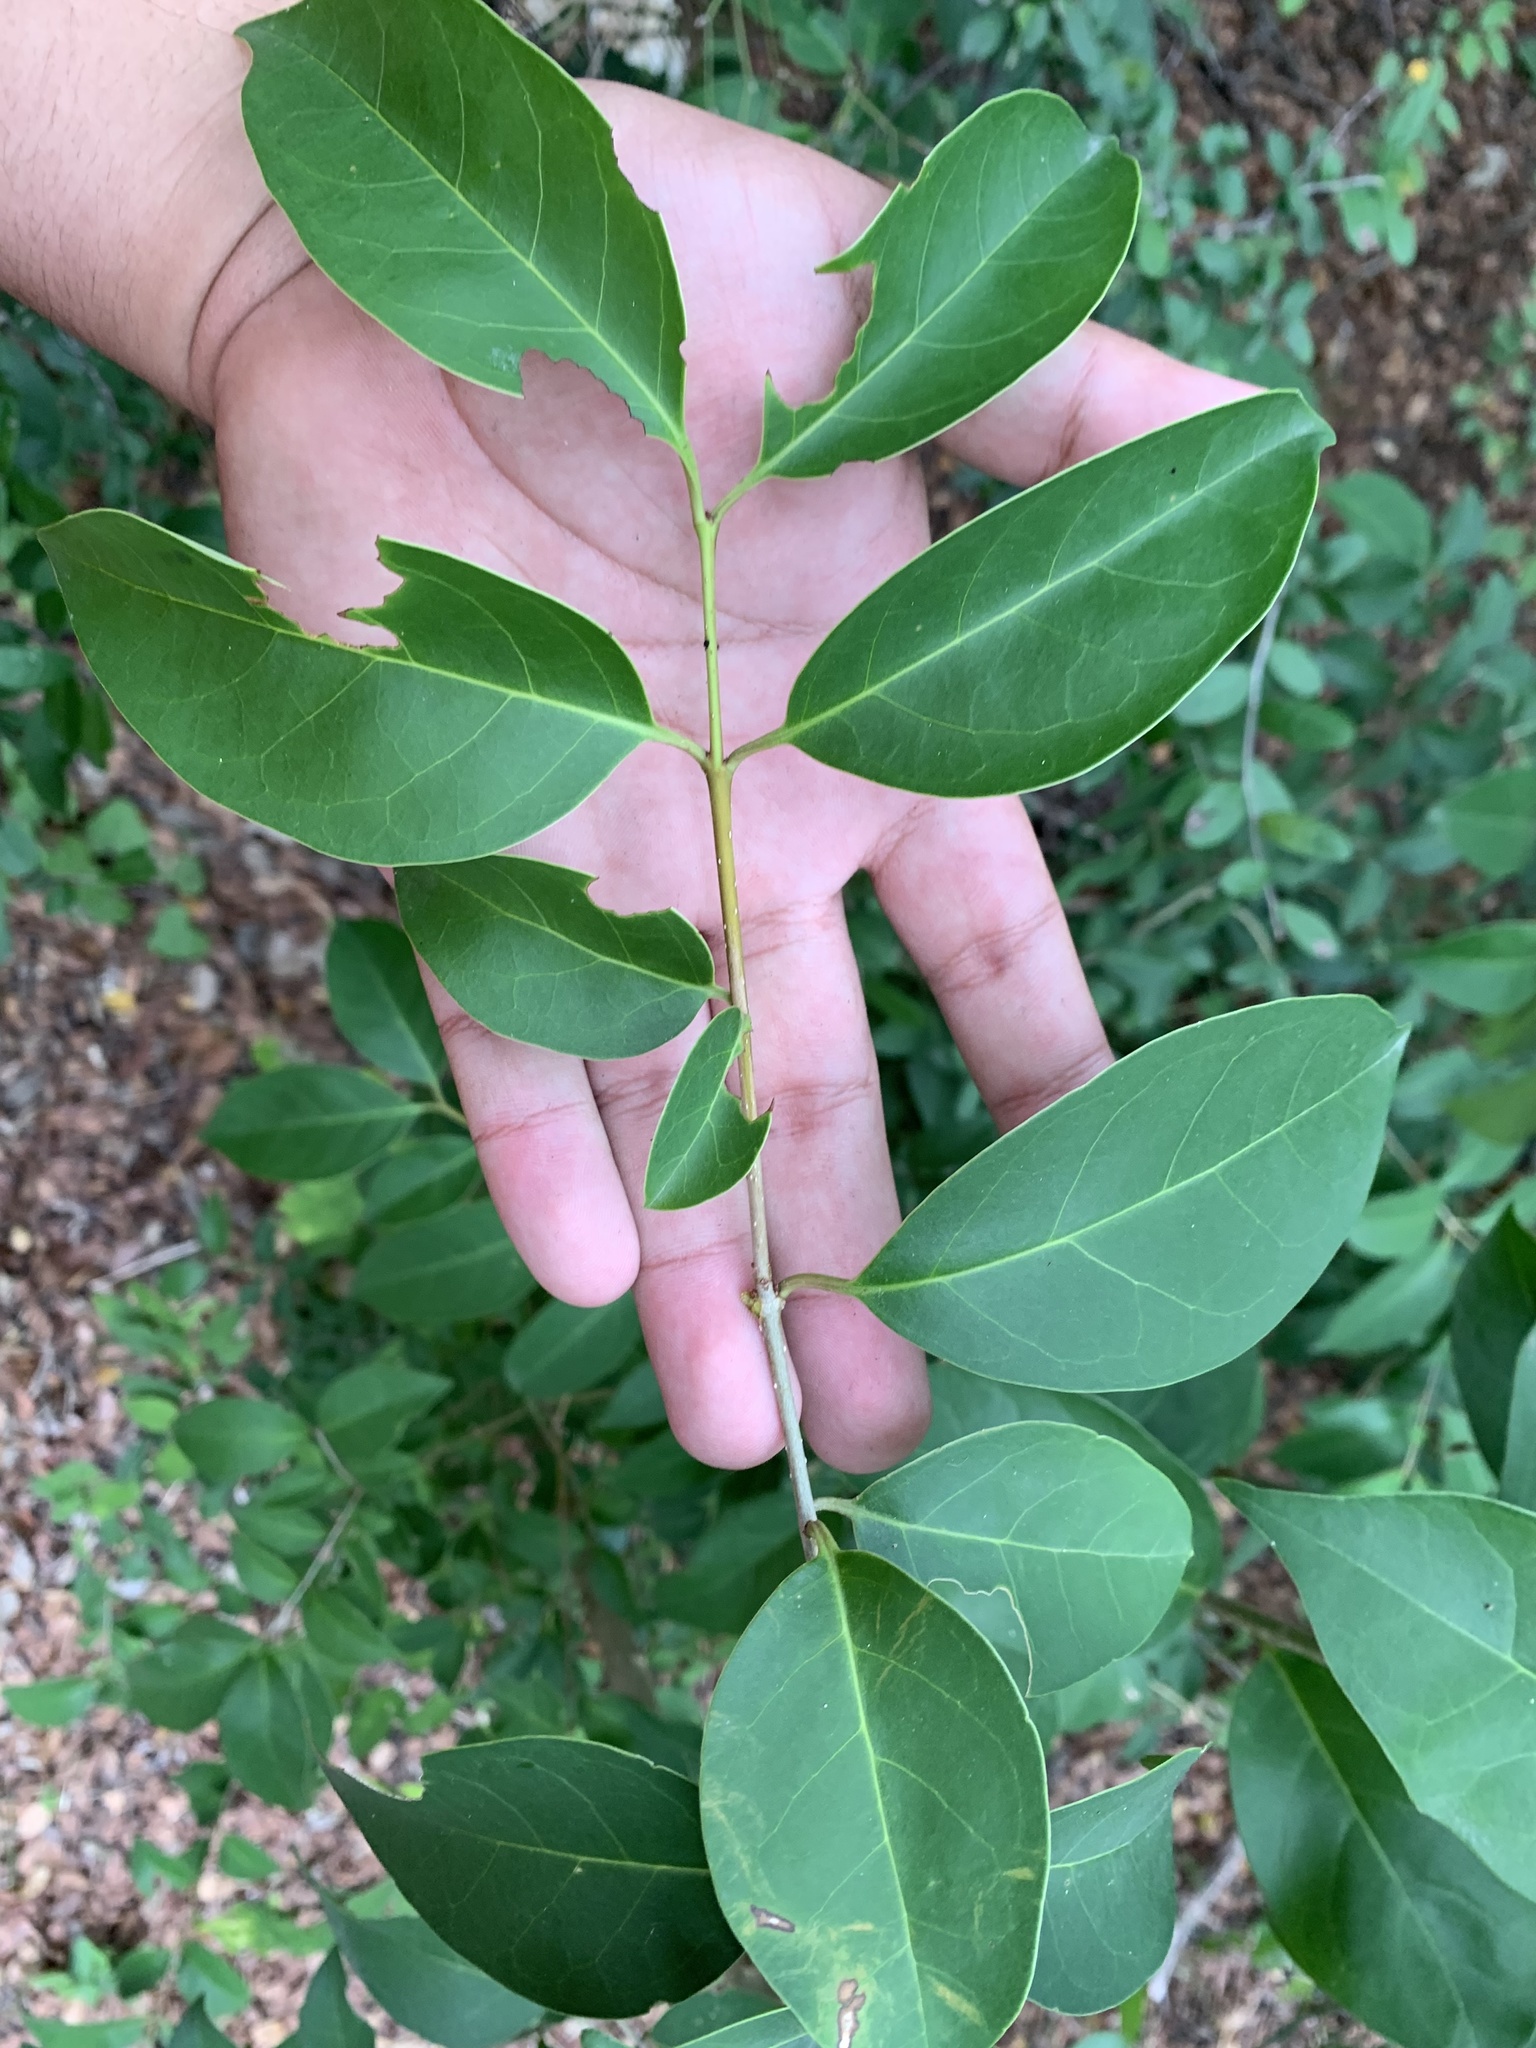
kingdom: Plantae
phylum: Tracheophyta
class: Magnoliopsida
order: Lamiales
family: Oleaceae
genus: Ligustrum
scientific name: Ligustrum lucidum
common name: Glossy privet
